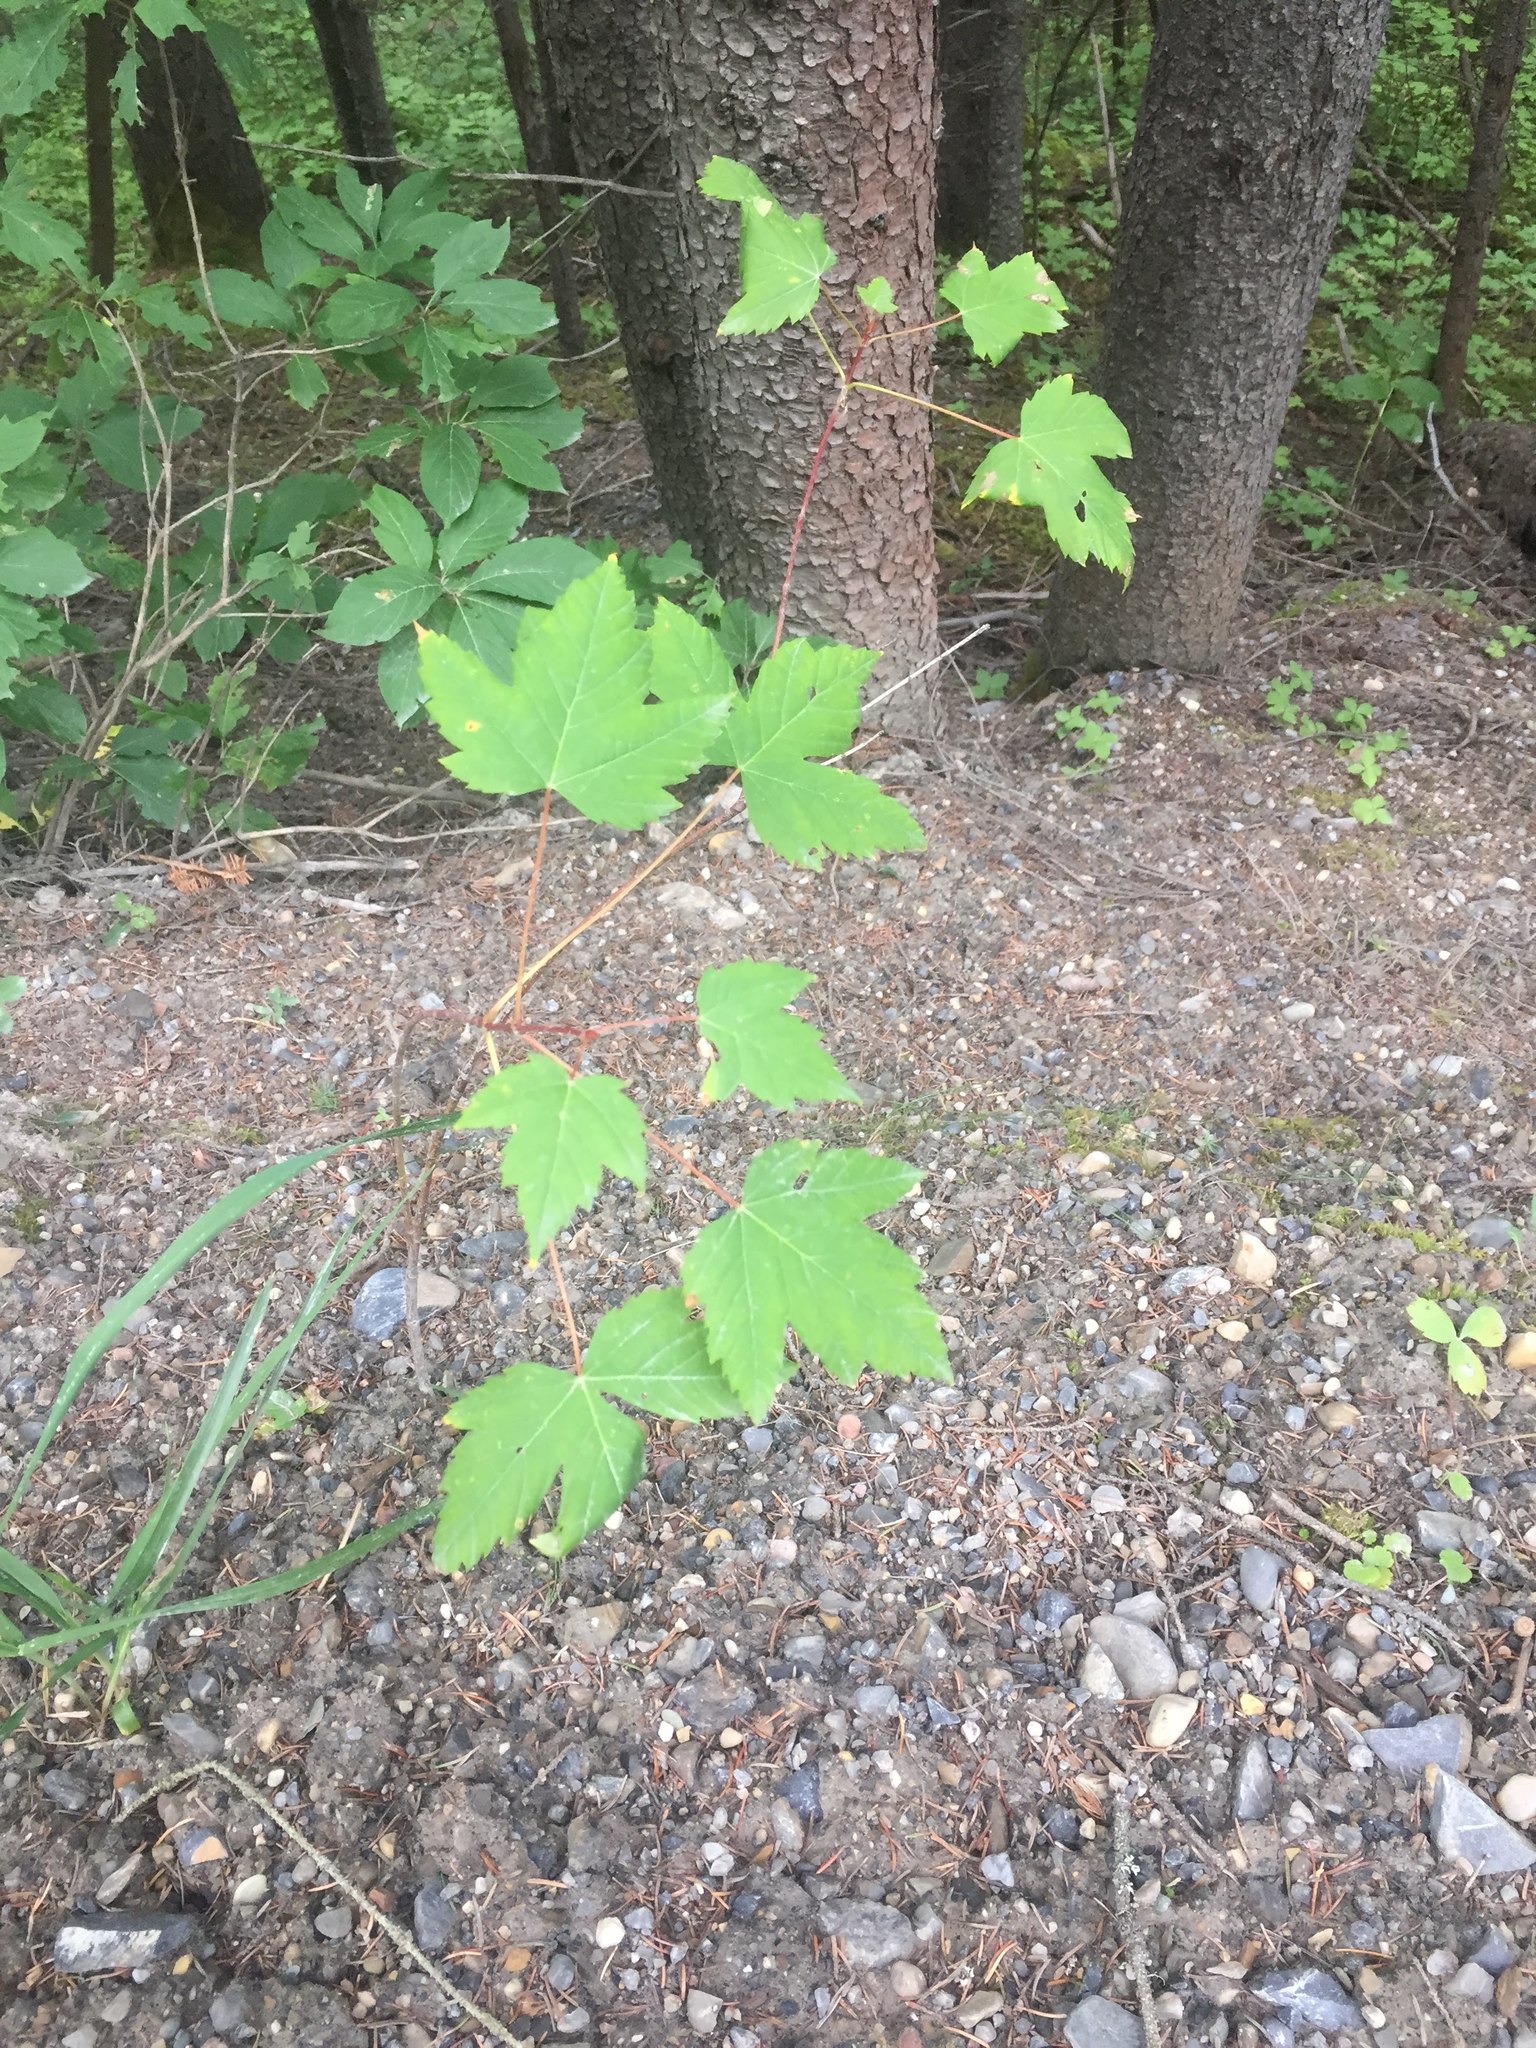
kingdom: Plantae
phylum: Tracheophyta
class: Magnoliopsida
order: Sapindales
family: Sapindaceae
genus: Acer
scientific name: Acer glabrum
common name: Rocky mountain maple
